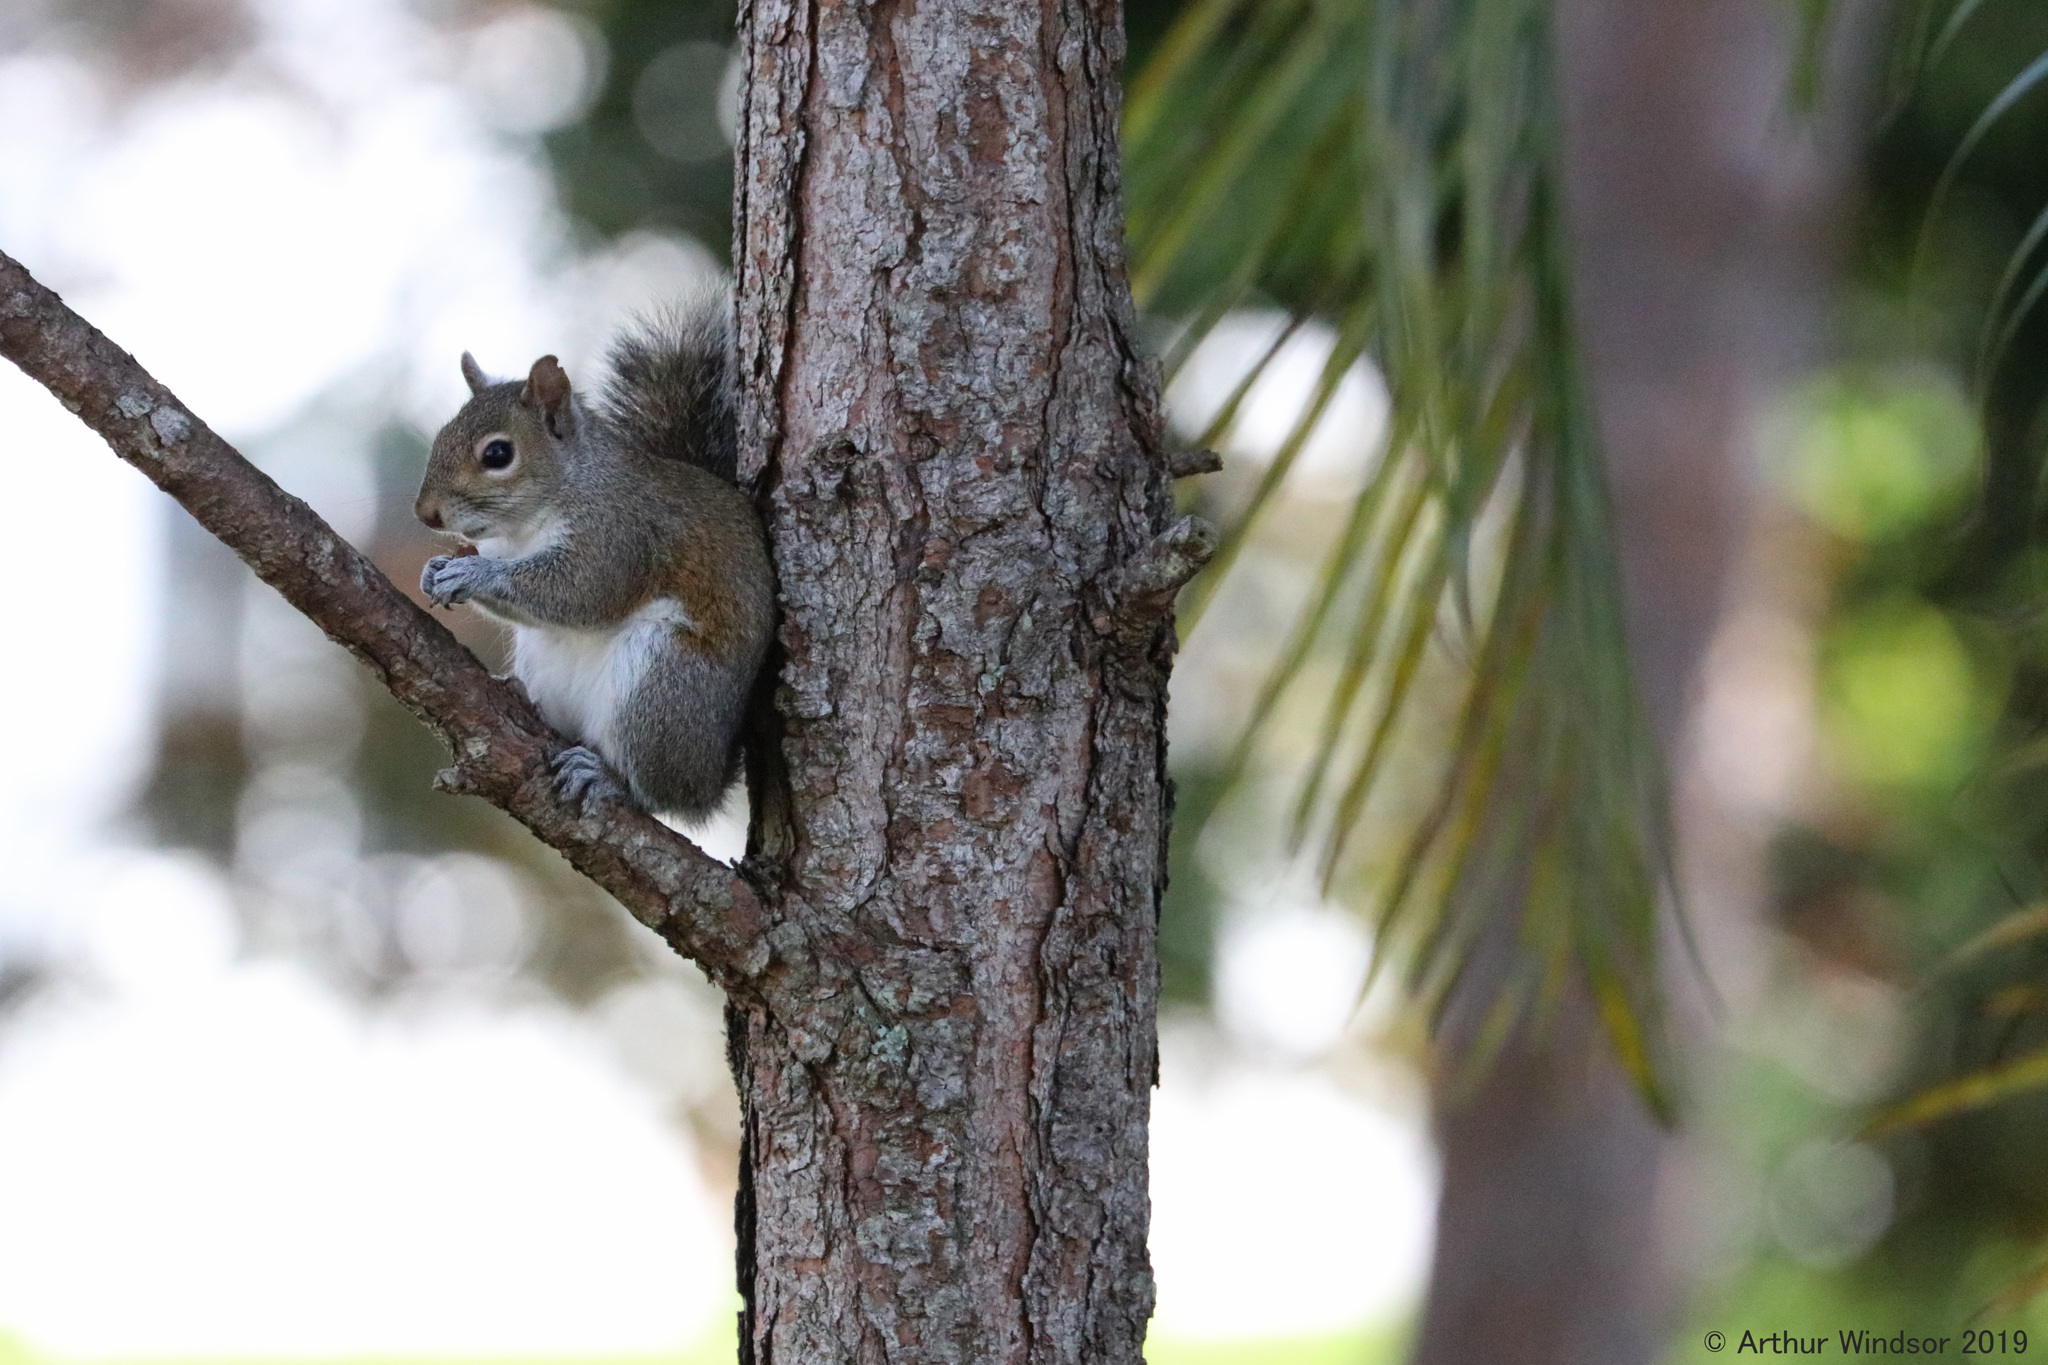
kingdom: Animalia
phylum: Chordata
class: Mammalia
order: Rodentia
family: Sciuridae
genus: Sciurus
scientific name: Sciurus carolinensis
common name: Eastern gray squirrel
